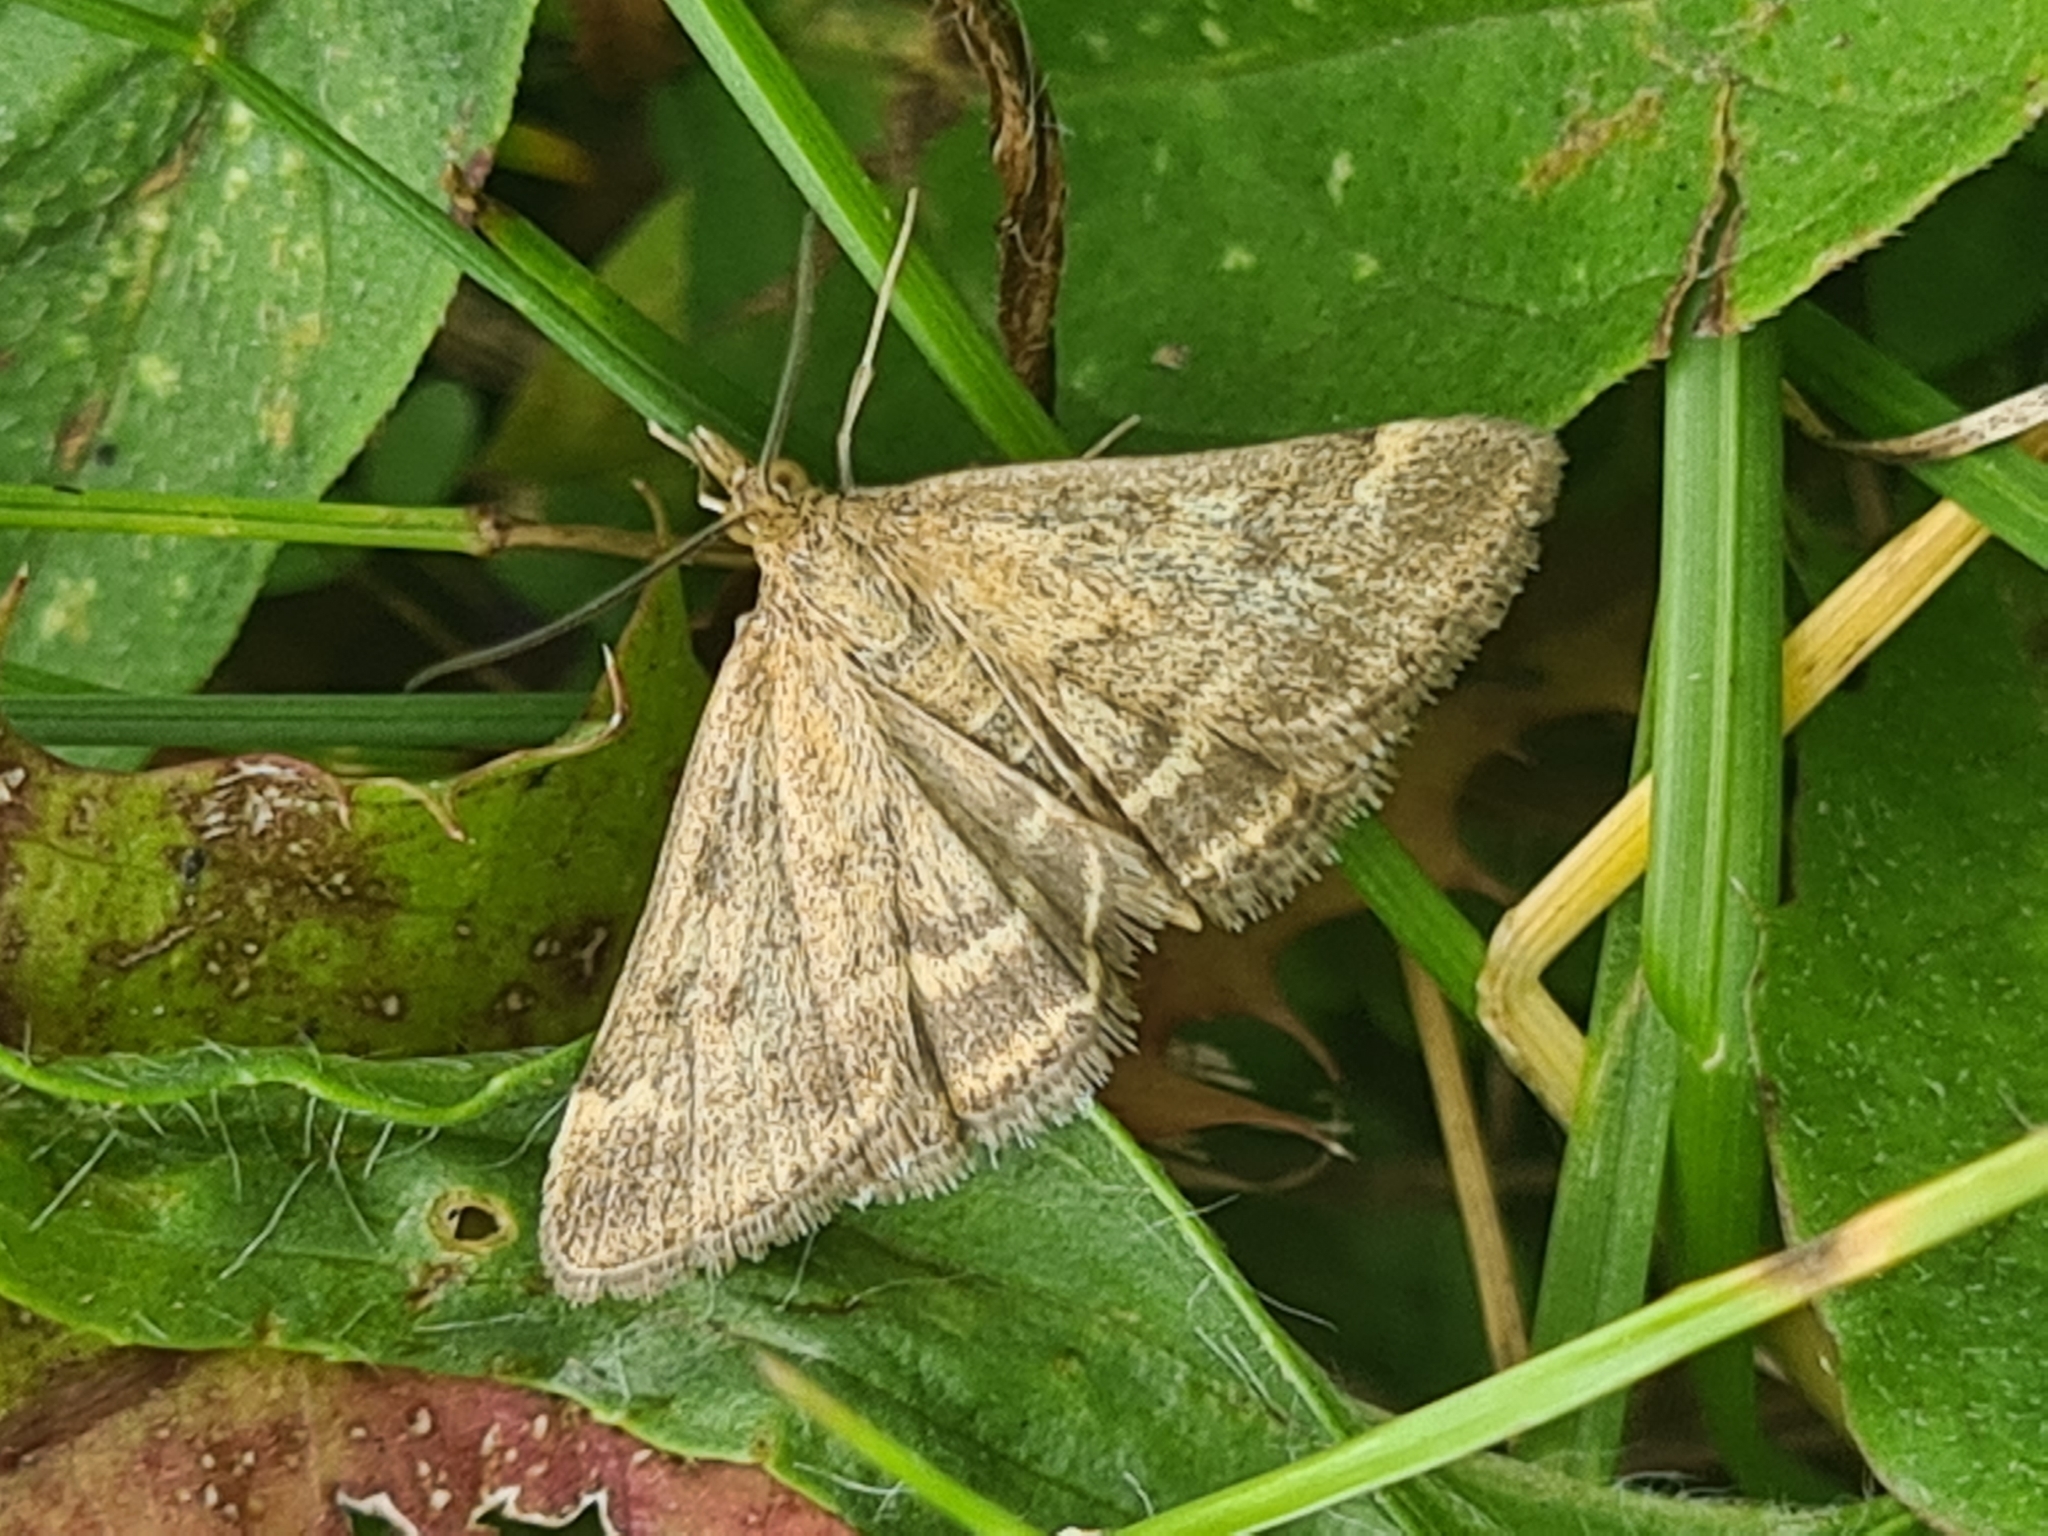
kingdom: Animalia
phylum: Arthropoda
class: Insecta
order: Lepidoptera
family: Crambidae
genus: Pyrausta
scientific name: Pyrausta despicata
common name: Straw-barred pearl
